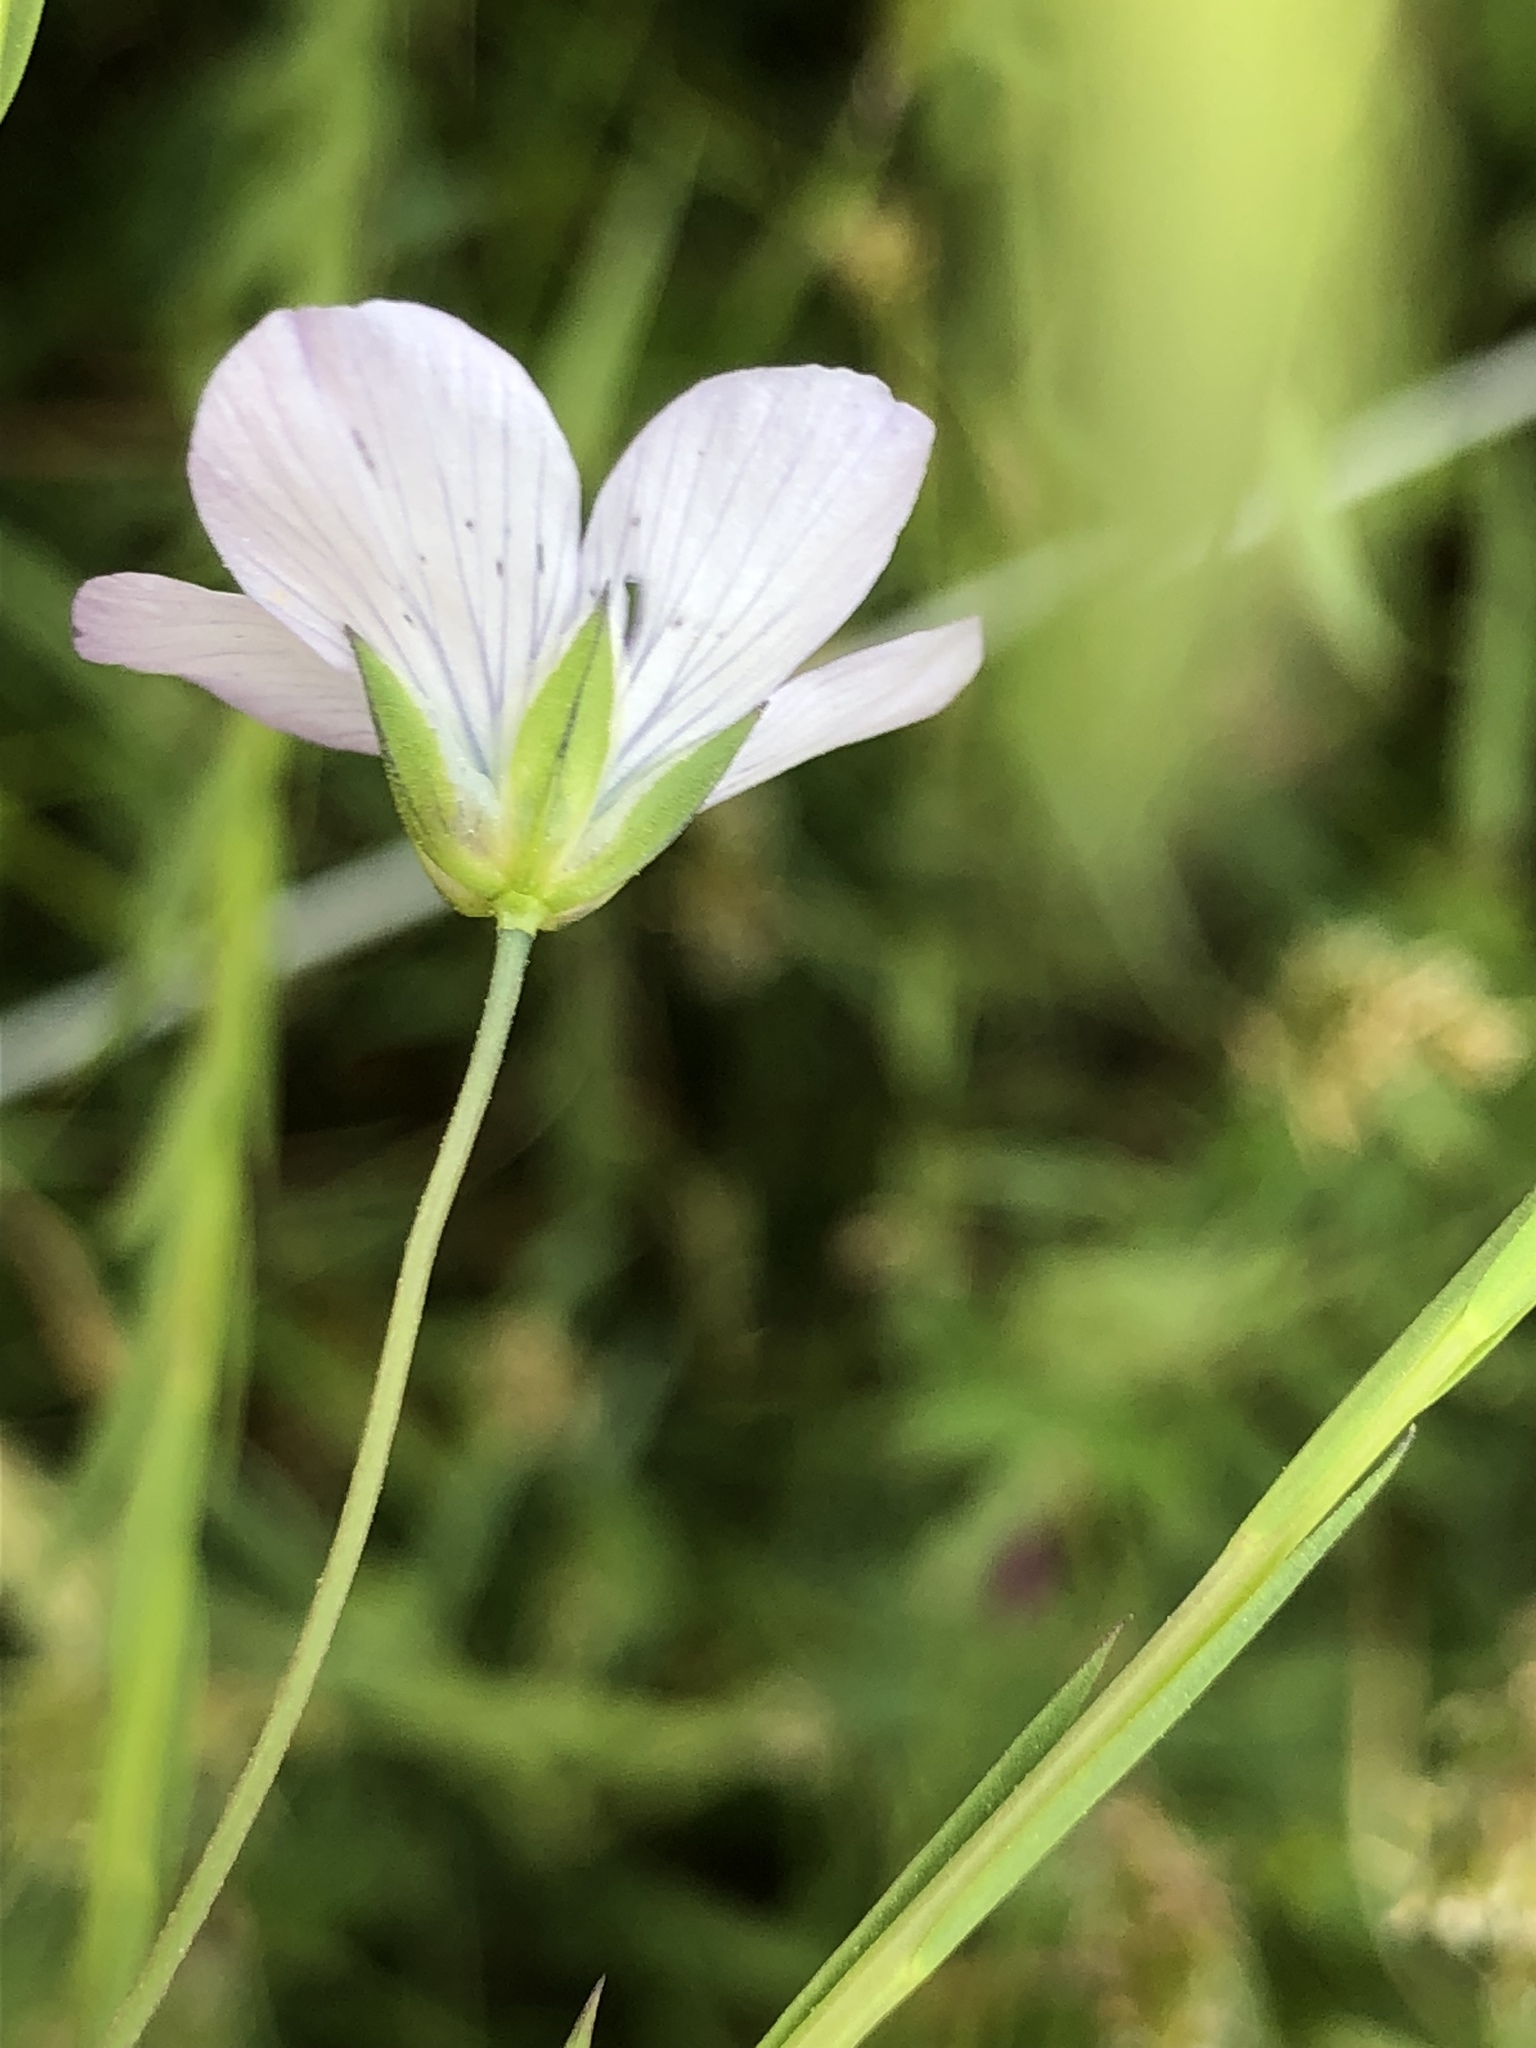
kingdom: Plantae
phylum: Tracheophyta
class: Magnoliopsida
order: Malpighiales
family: Linaceae
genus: Linum
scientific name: Linum bienne
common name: Pale flax
